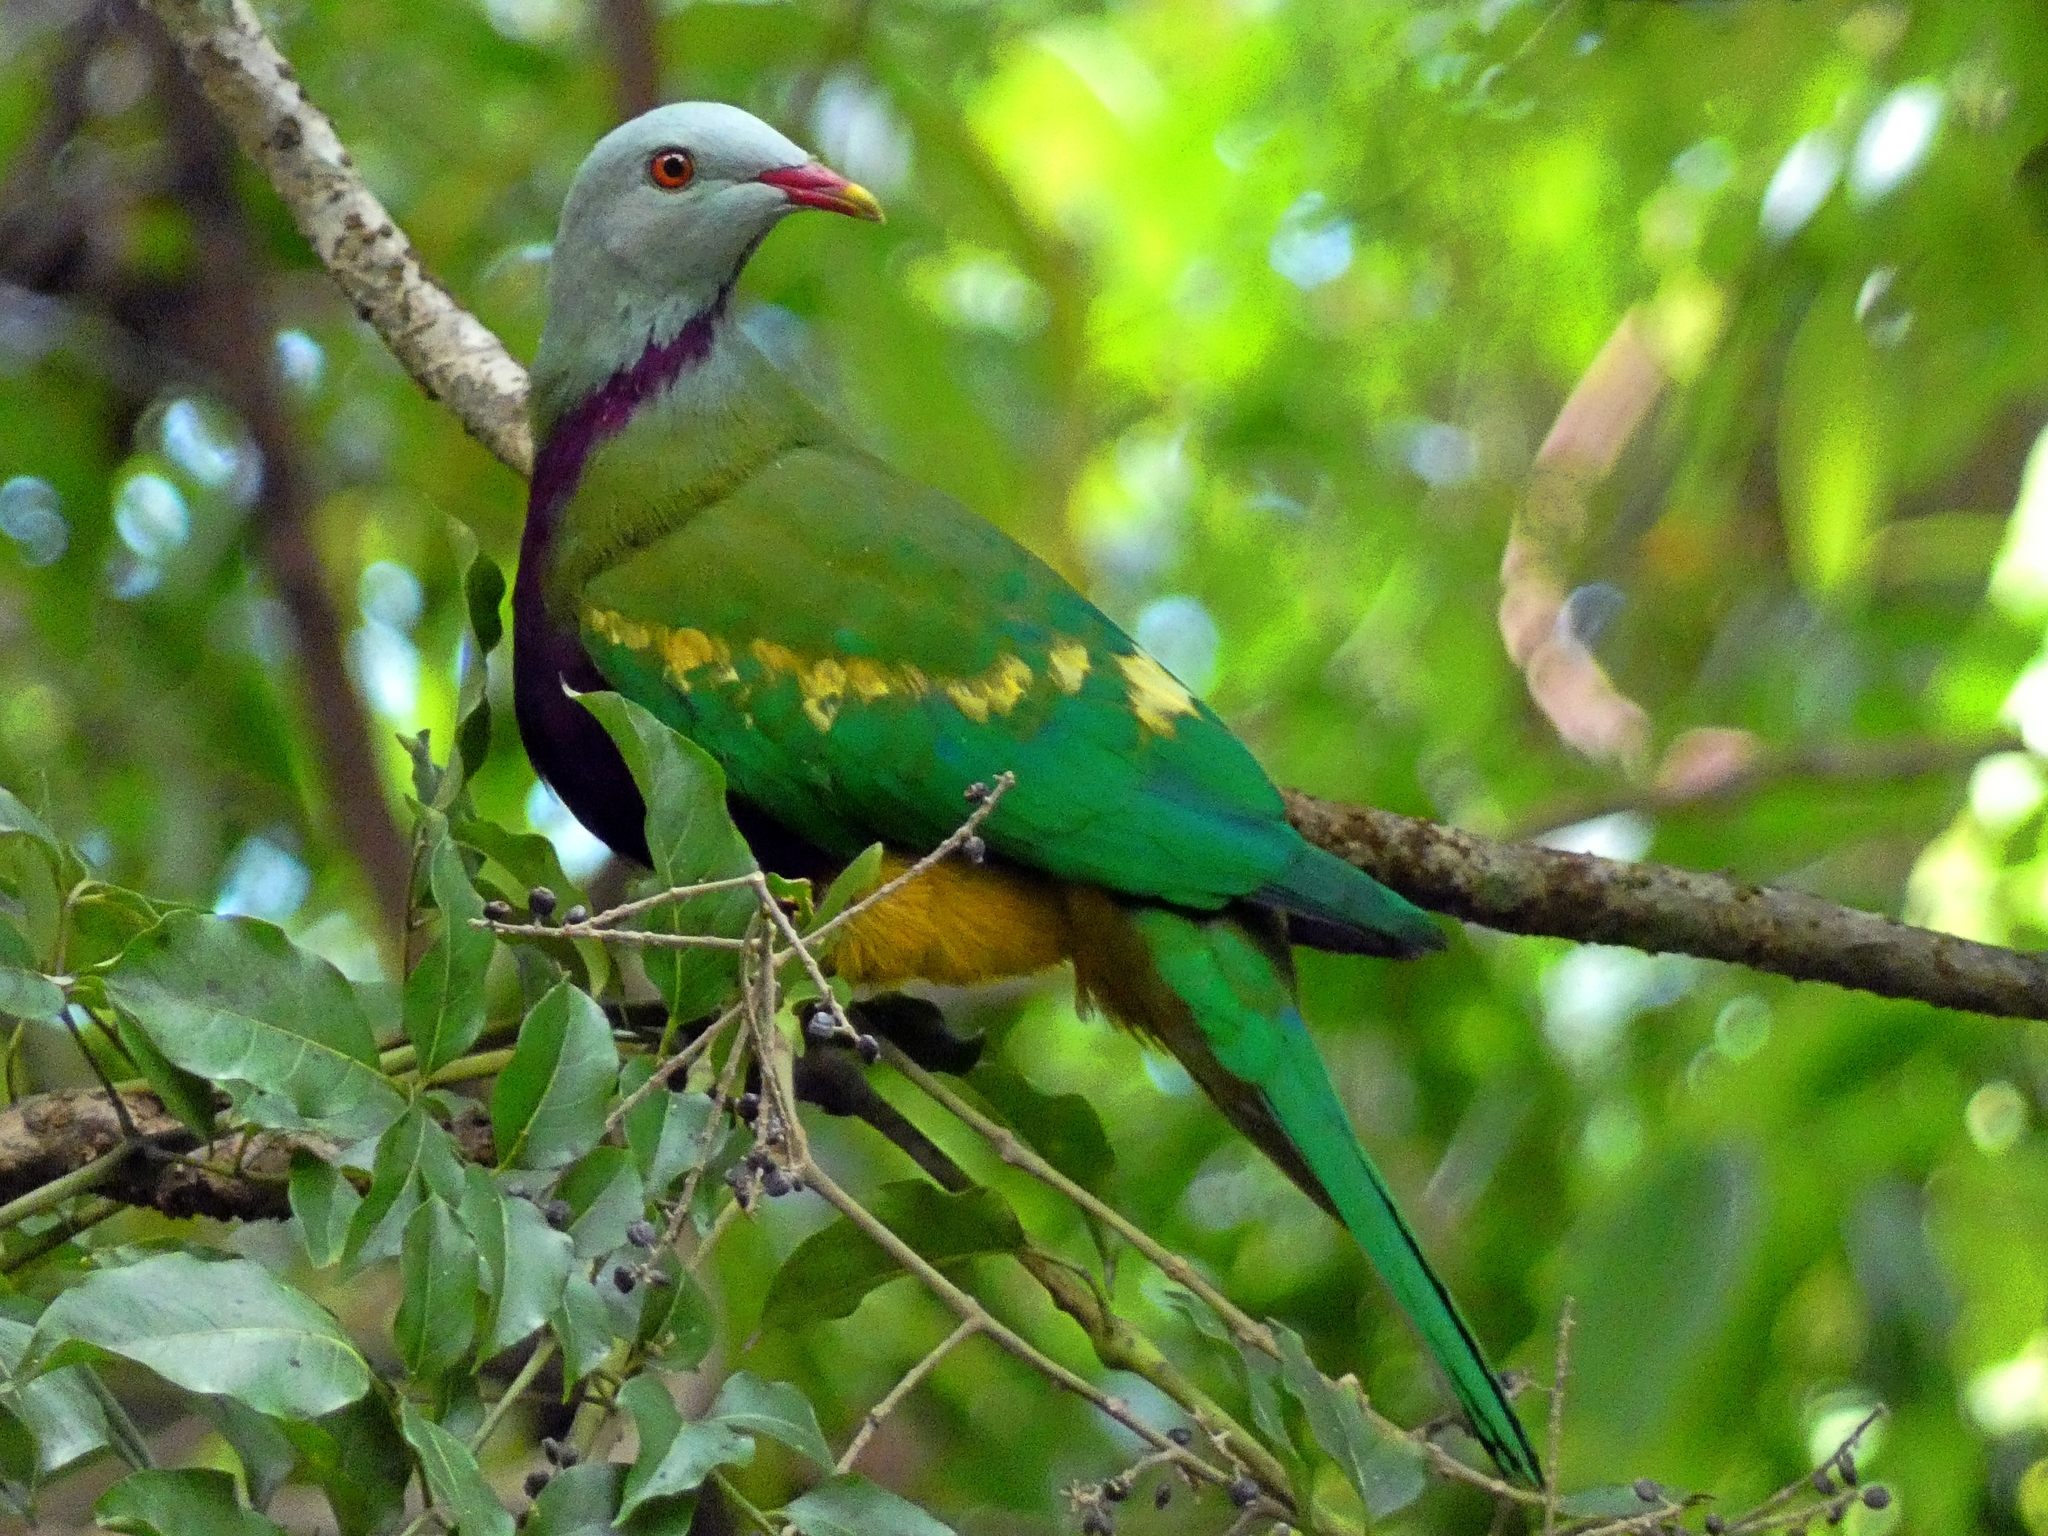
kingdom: Animalia
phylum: Chordata
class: Aves
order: Columbiformes
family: Columbidae
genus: Ptilinopus
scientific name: Ptilinopus magnificus
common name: Wompoo fruit dove
